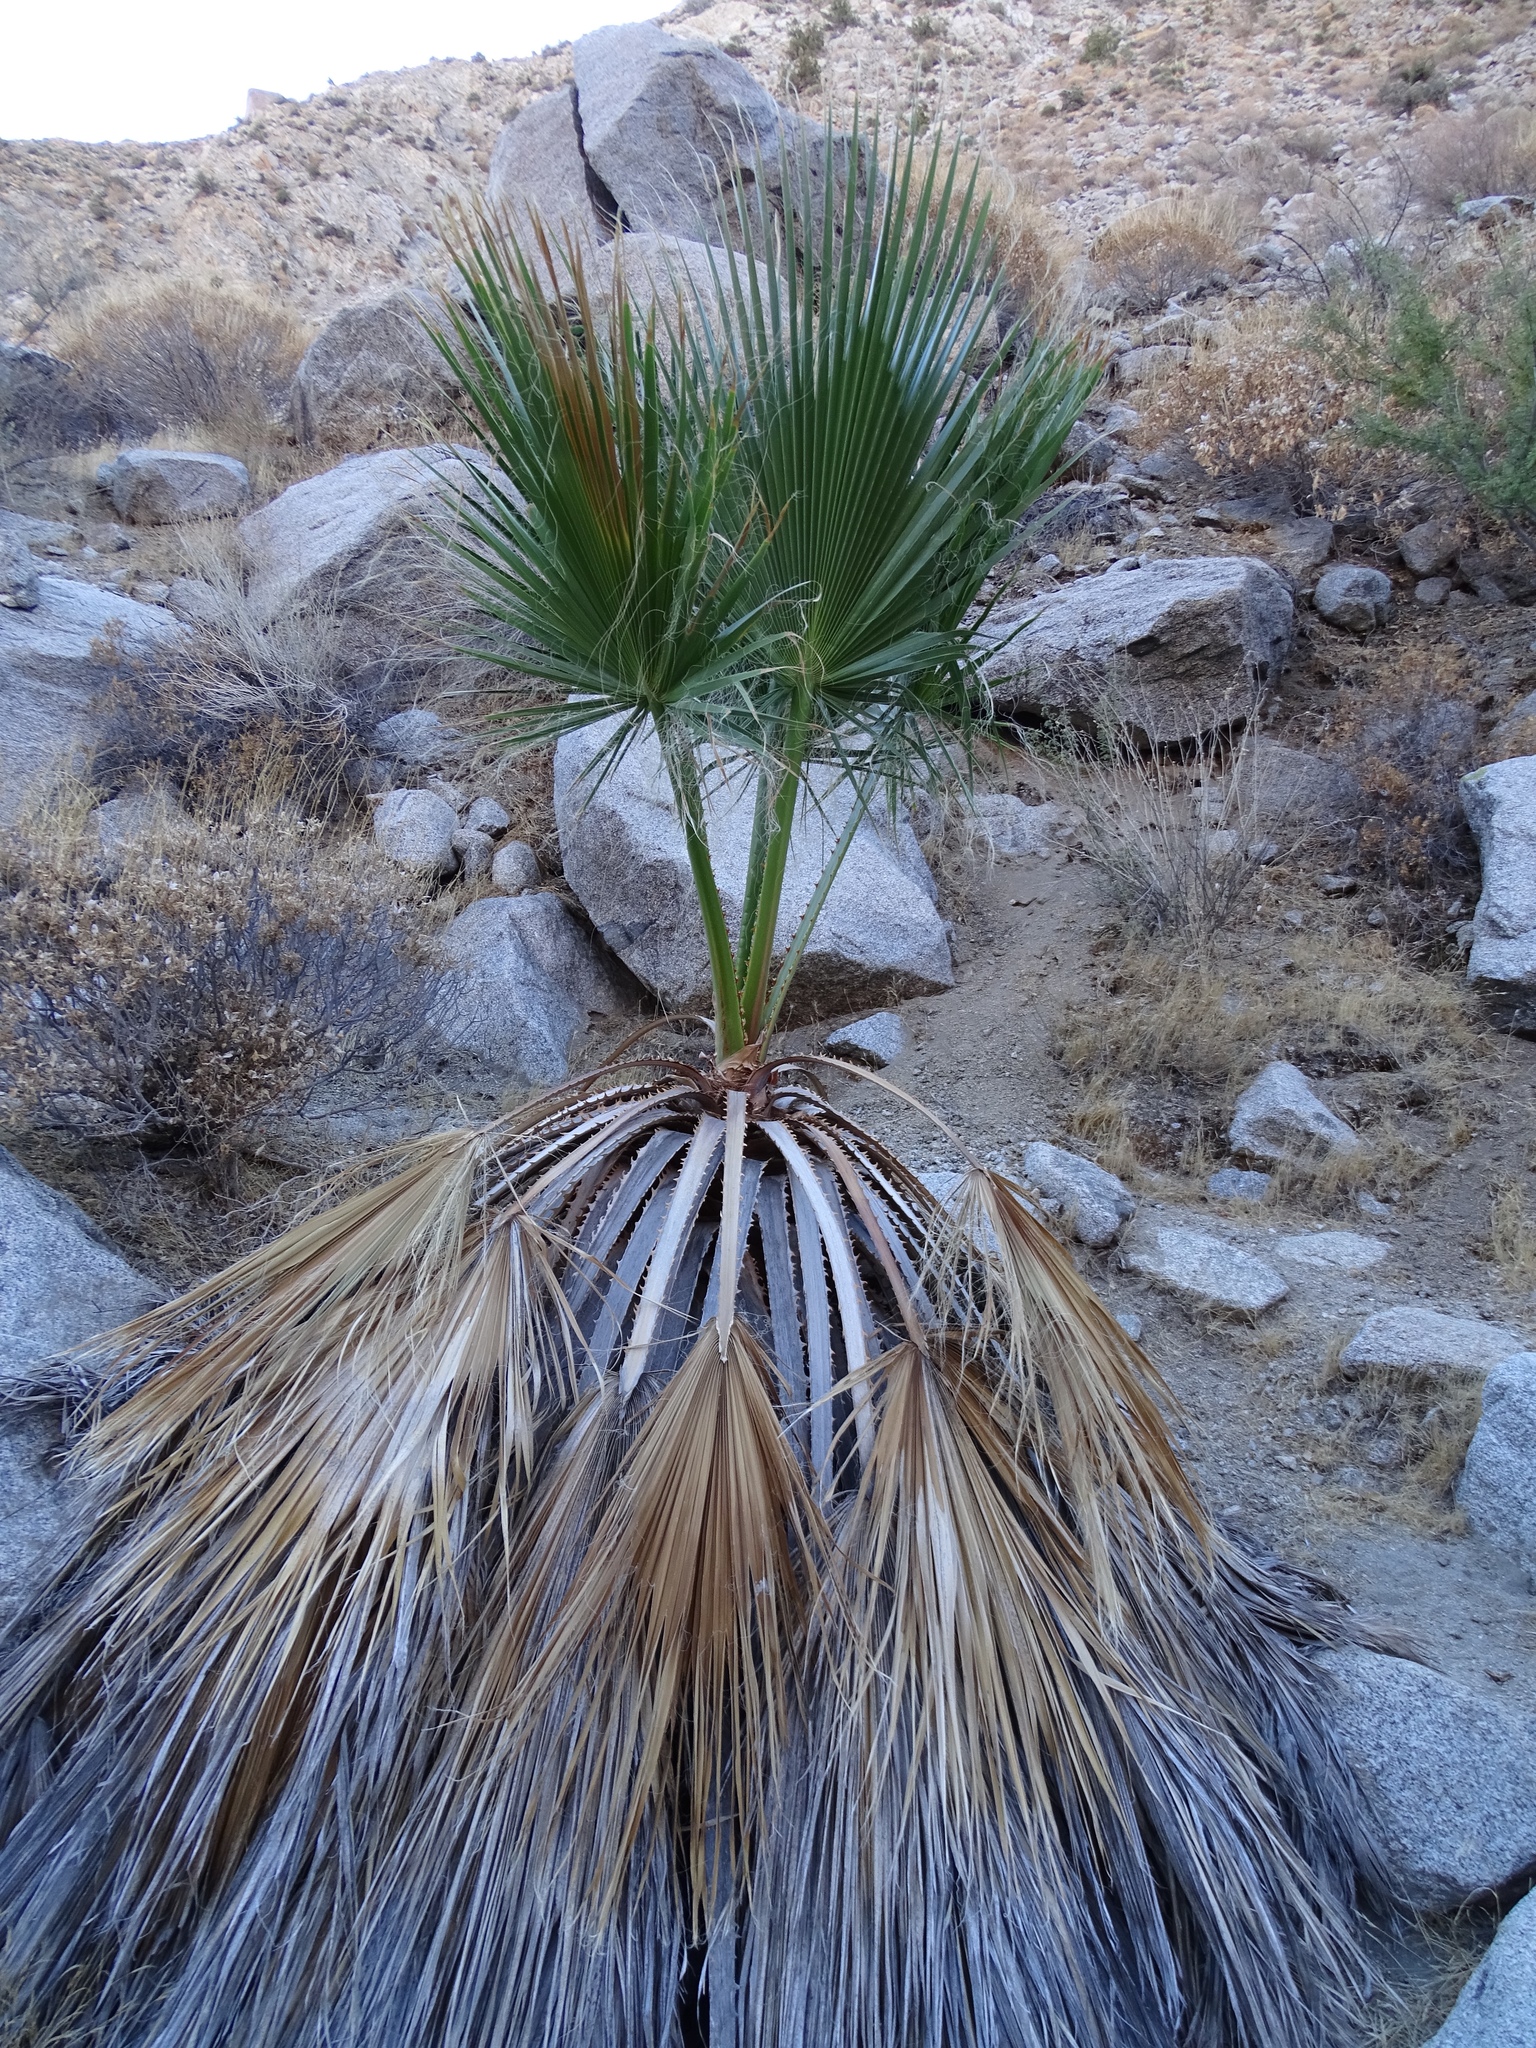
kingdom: Plantae
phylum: Tracheophyta
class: Liliopsida
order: Arecales
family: Arecaceae
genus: Washingtonia
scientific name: Washingtonia filifera
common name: California fan palm
